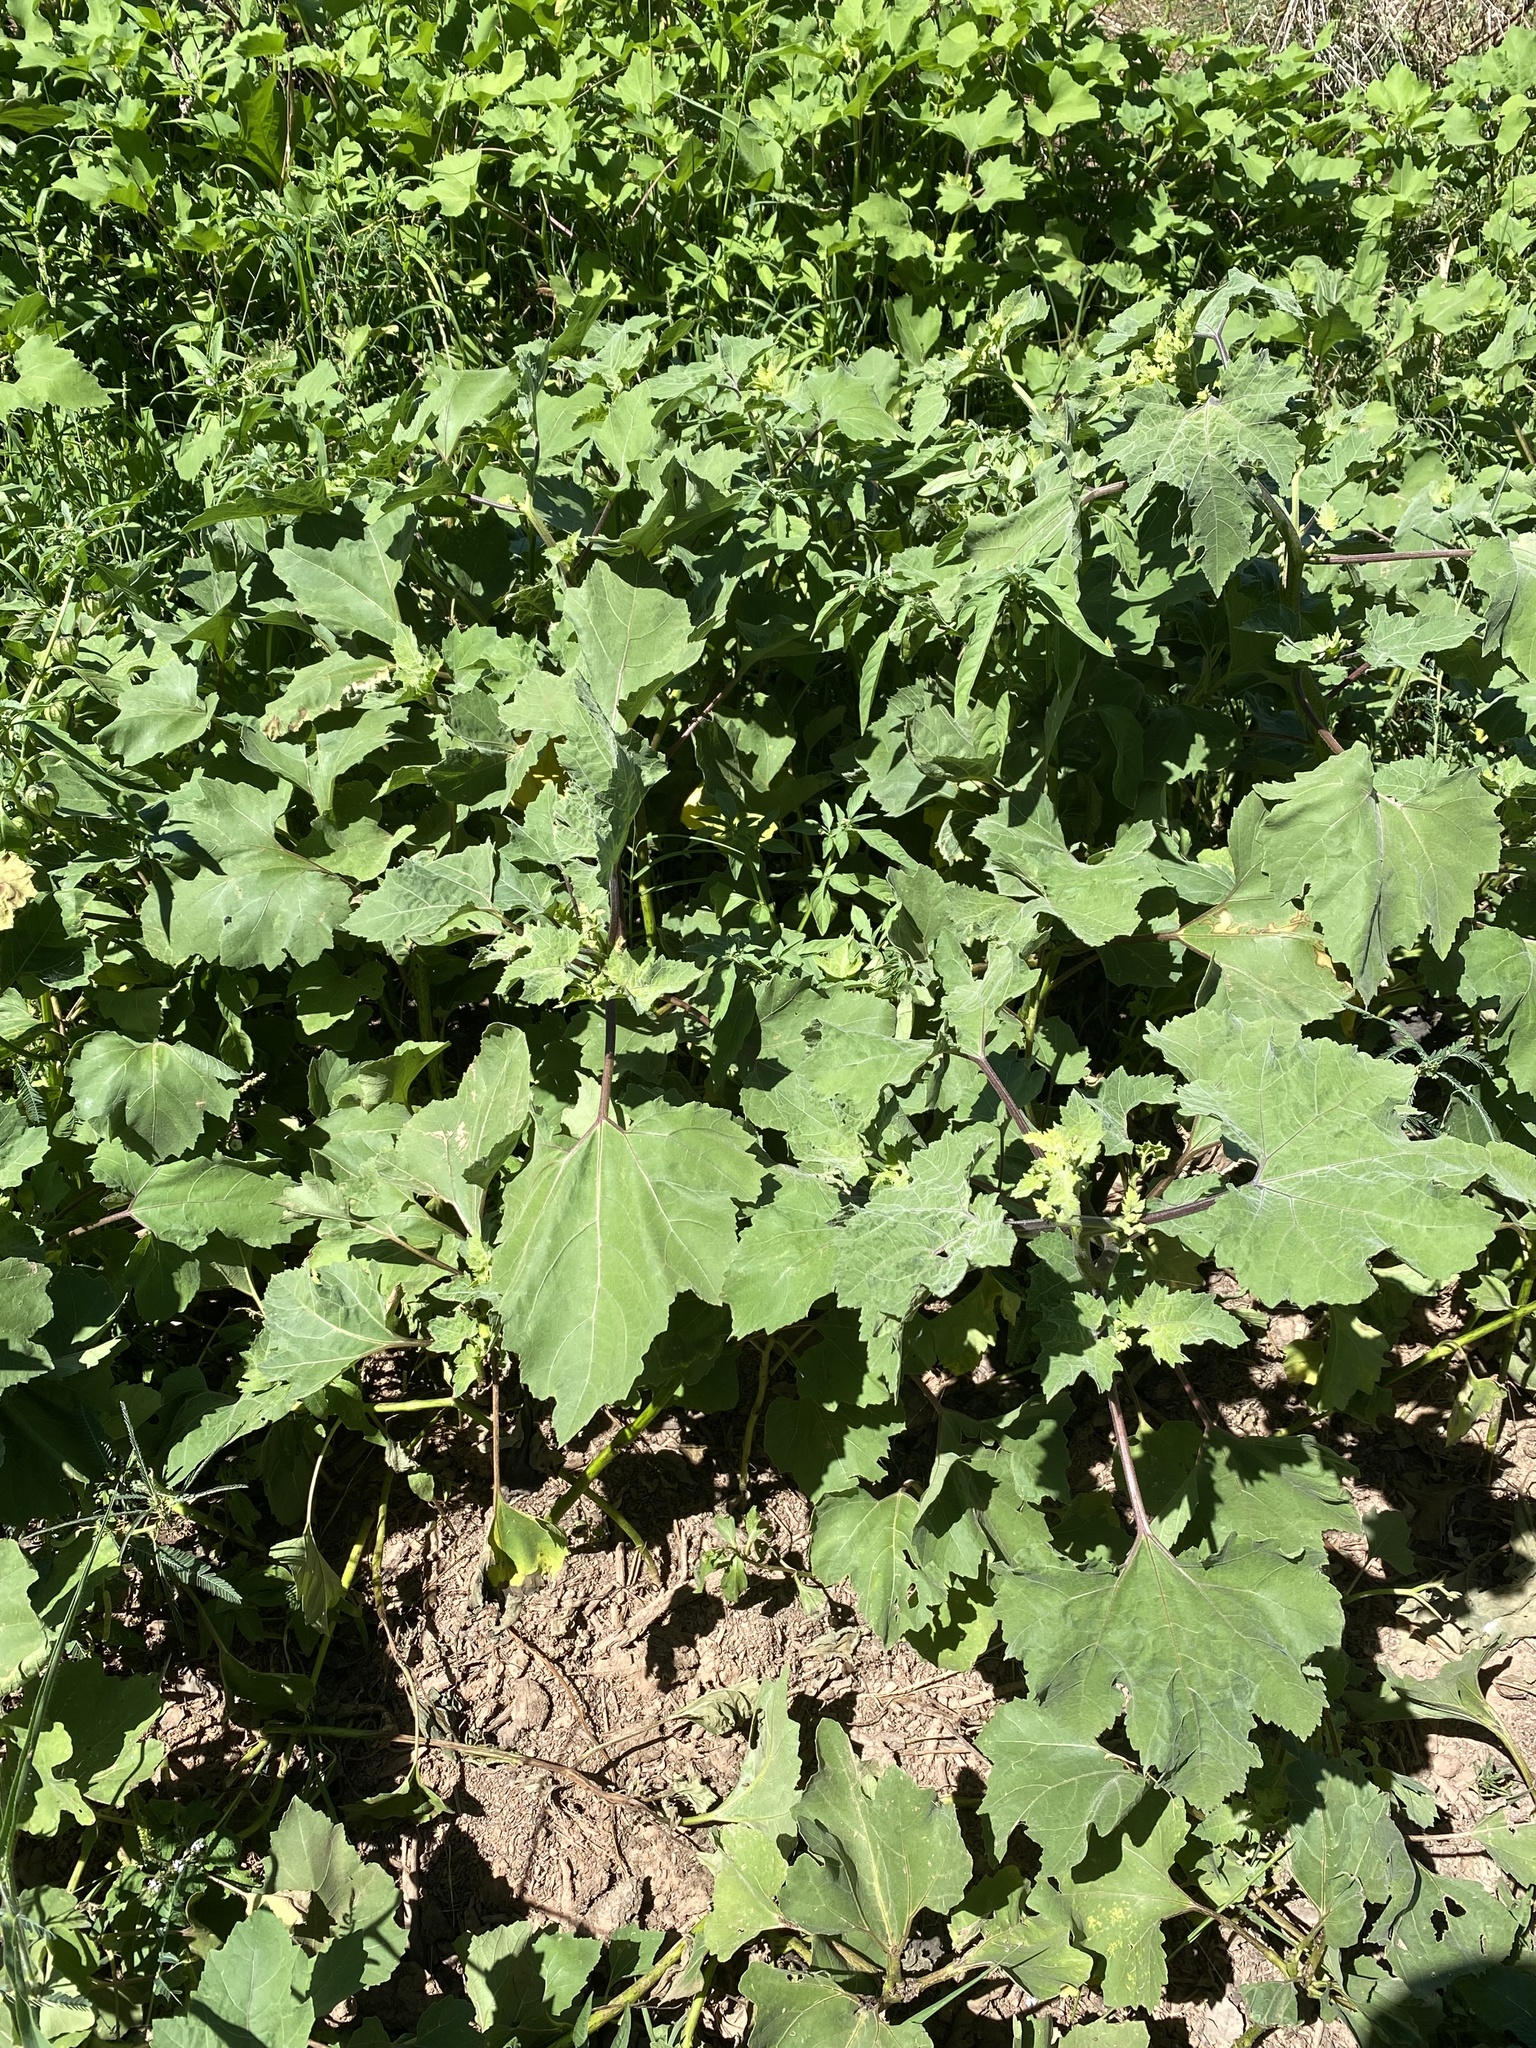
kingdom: Plantae
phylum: Tracheophyta
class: Magnoliopsida
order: Asterales
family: Asteraceae
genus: Xanthium
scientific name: Xanthium strumarium
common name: Rough cocklebur
